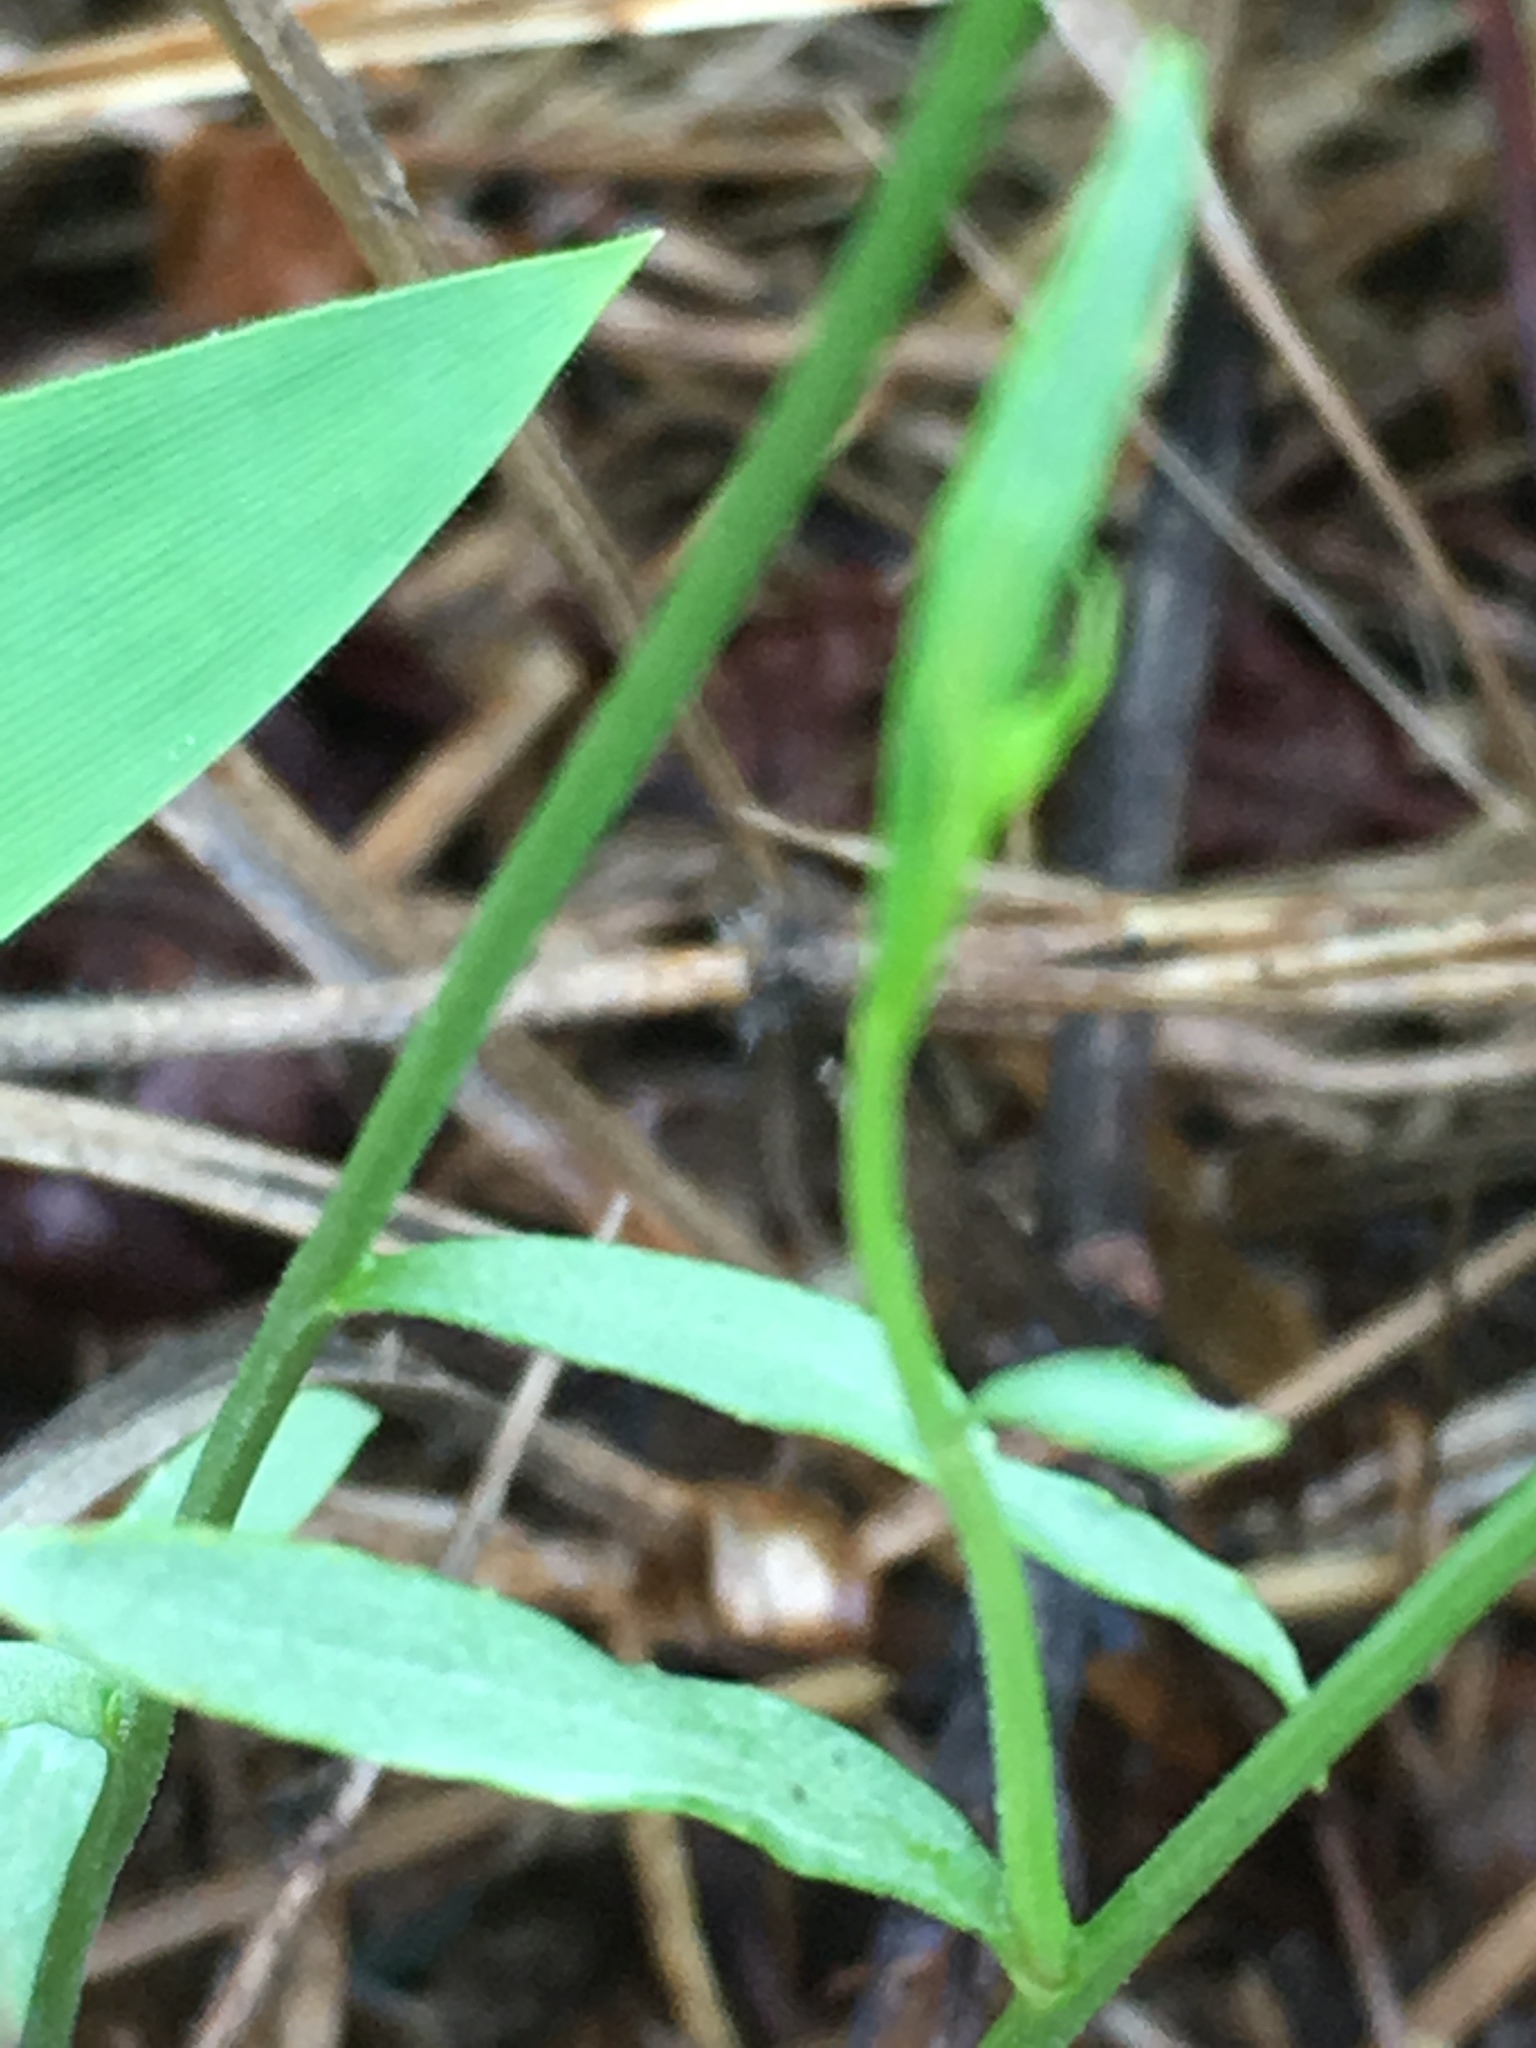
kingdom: Plantae
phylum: Tracheophyta
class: Magnoliopsida
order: Asterales
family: Campanulaceae
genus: Lobelia
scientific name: Lobelia nuttallii
